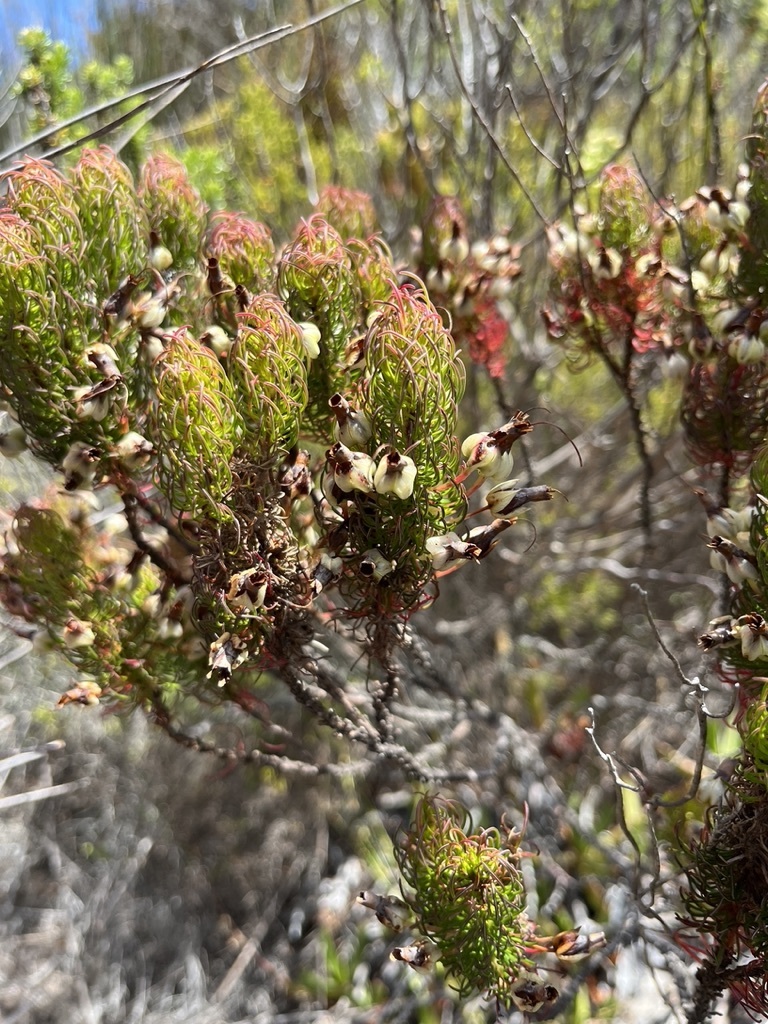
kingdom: Plantae
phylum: Tracheophyta
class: Magnoliopsida
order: Ericales
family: Ericaceae
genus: Erica
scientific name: Erica plukenetii
